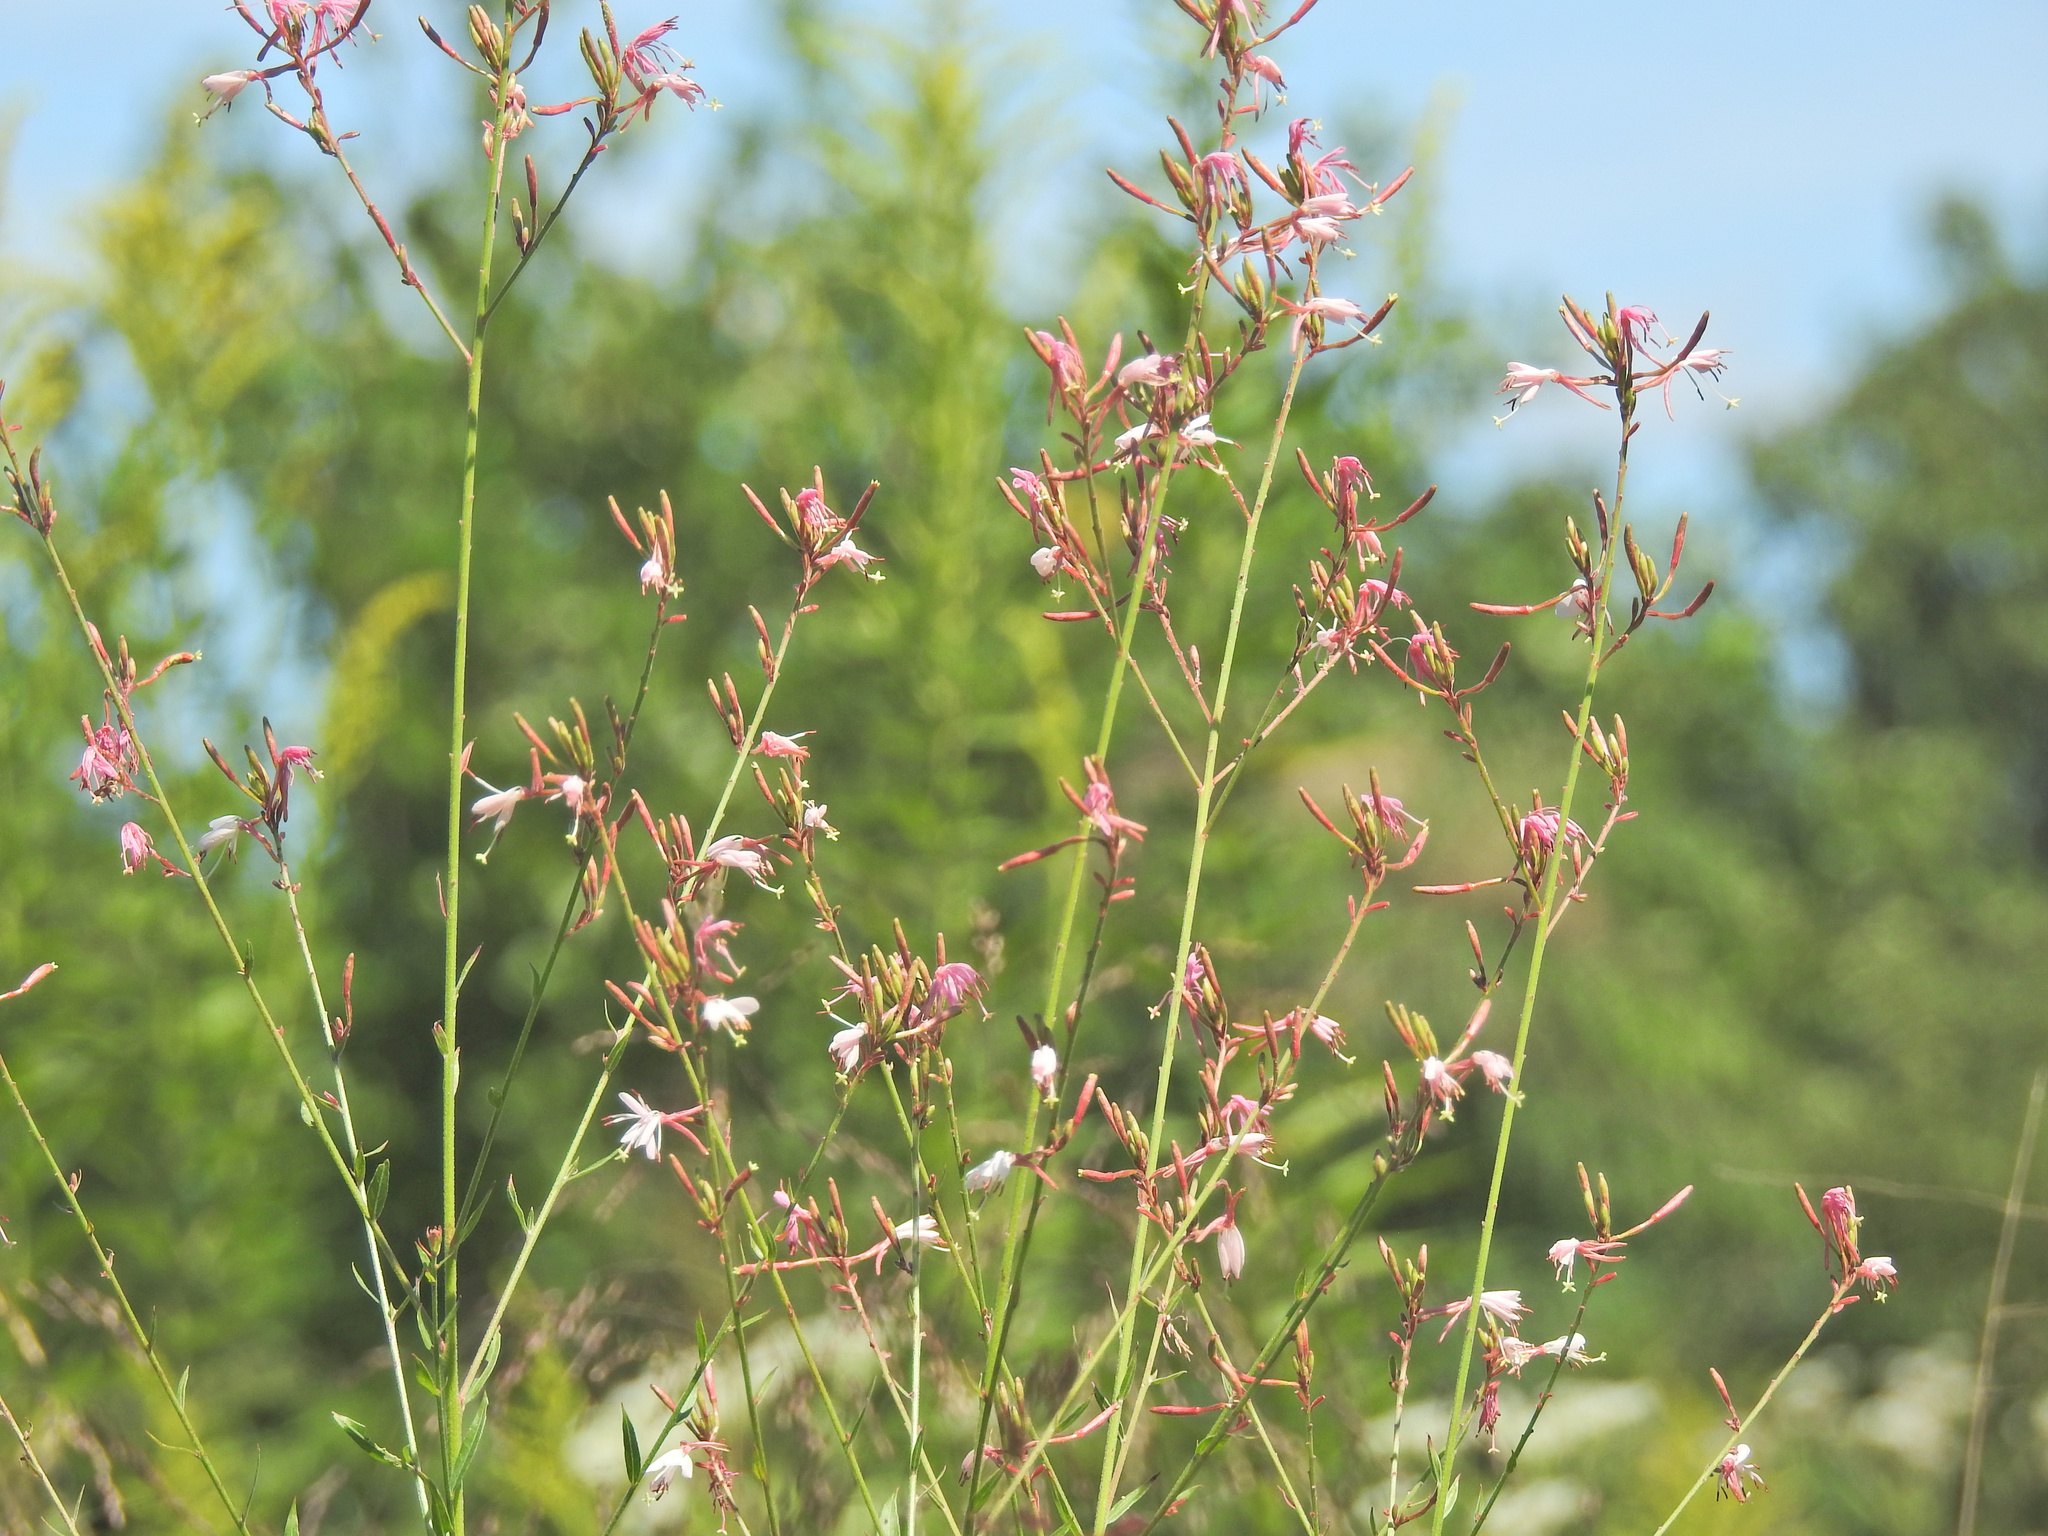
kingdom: Plantae
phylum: Tracheophyta
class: Magnoliopsida
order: Myrtales
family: Onagraceae
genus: Oenothera
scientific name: Oenothera gaura
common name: Biennial beeblossom
